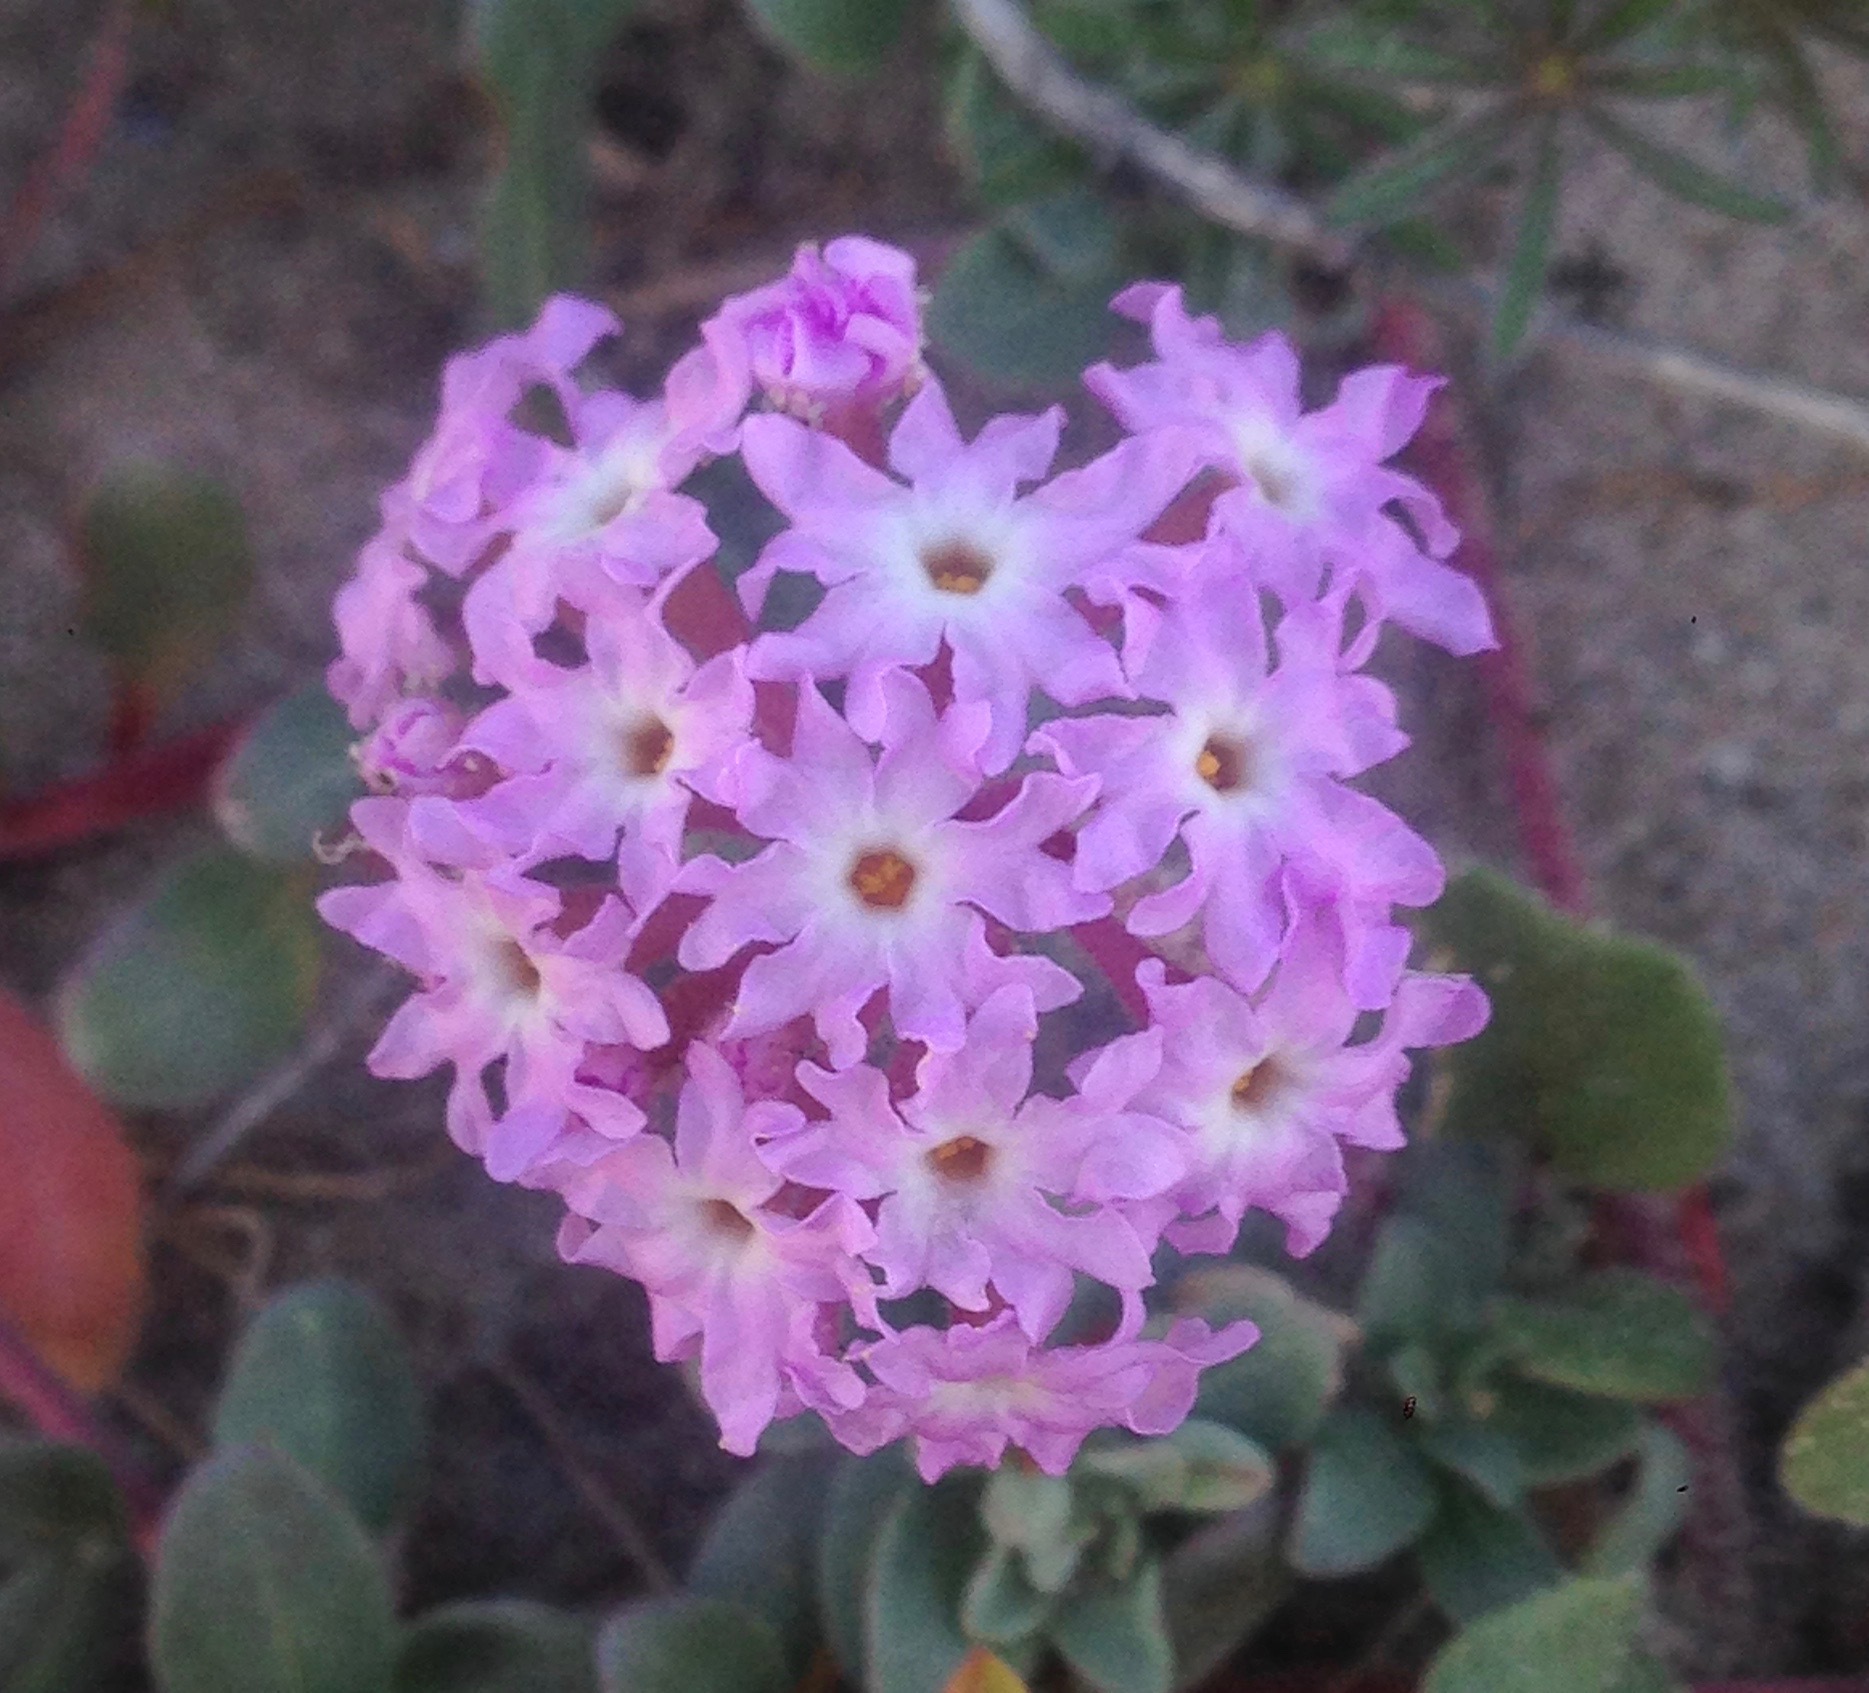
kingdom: Plantae
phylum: Tracheophyta
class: Magnoliopsida
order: Caryophyllales
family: Nyctaginaceae
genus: Abronia
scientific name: Abronia umbellata
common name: Sand-verbena
